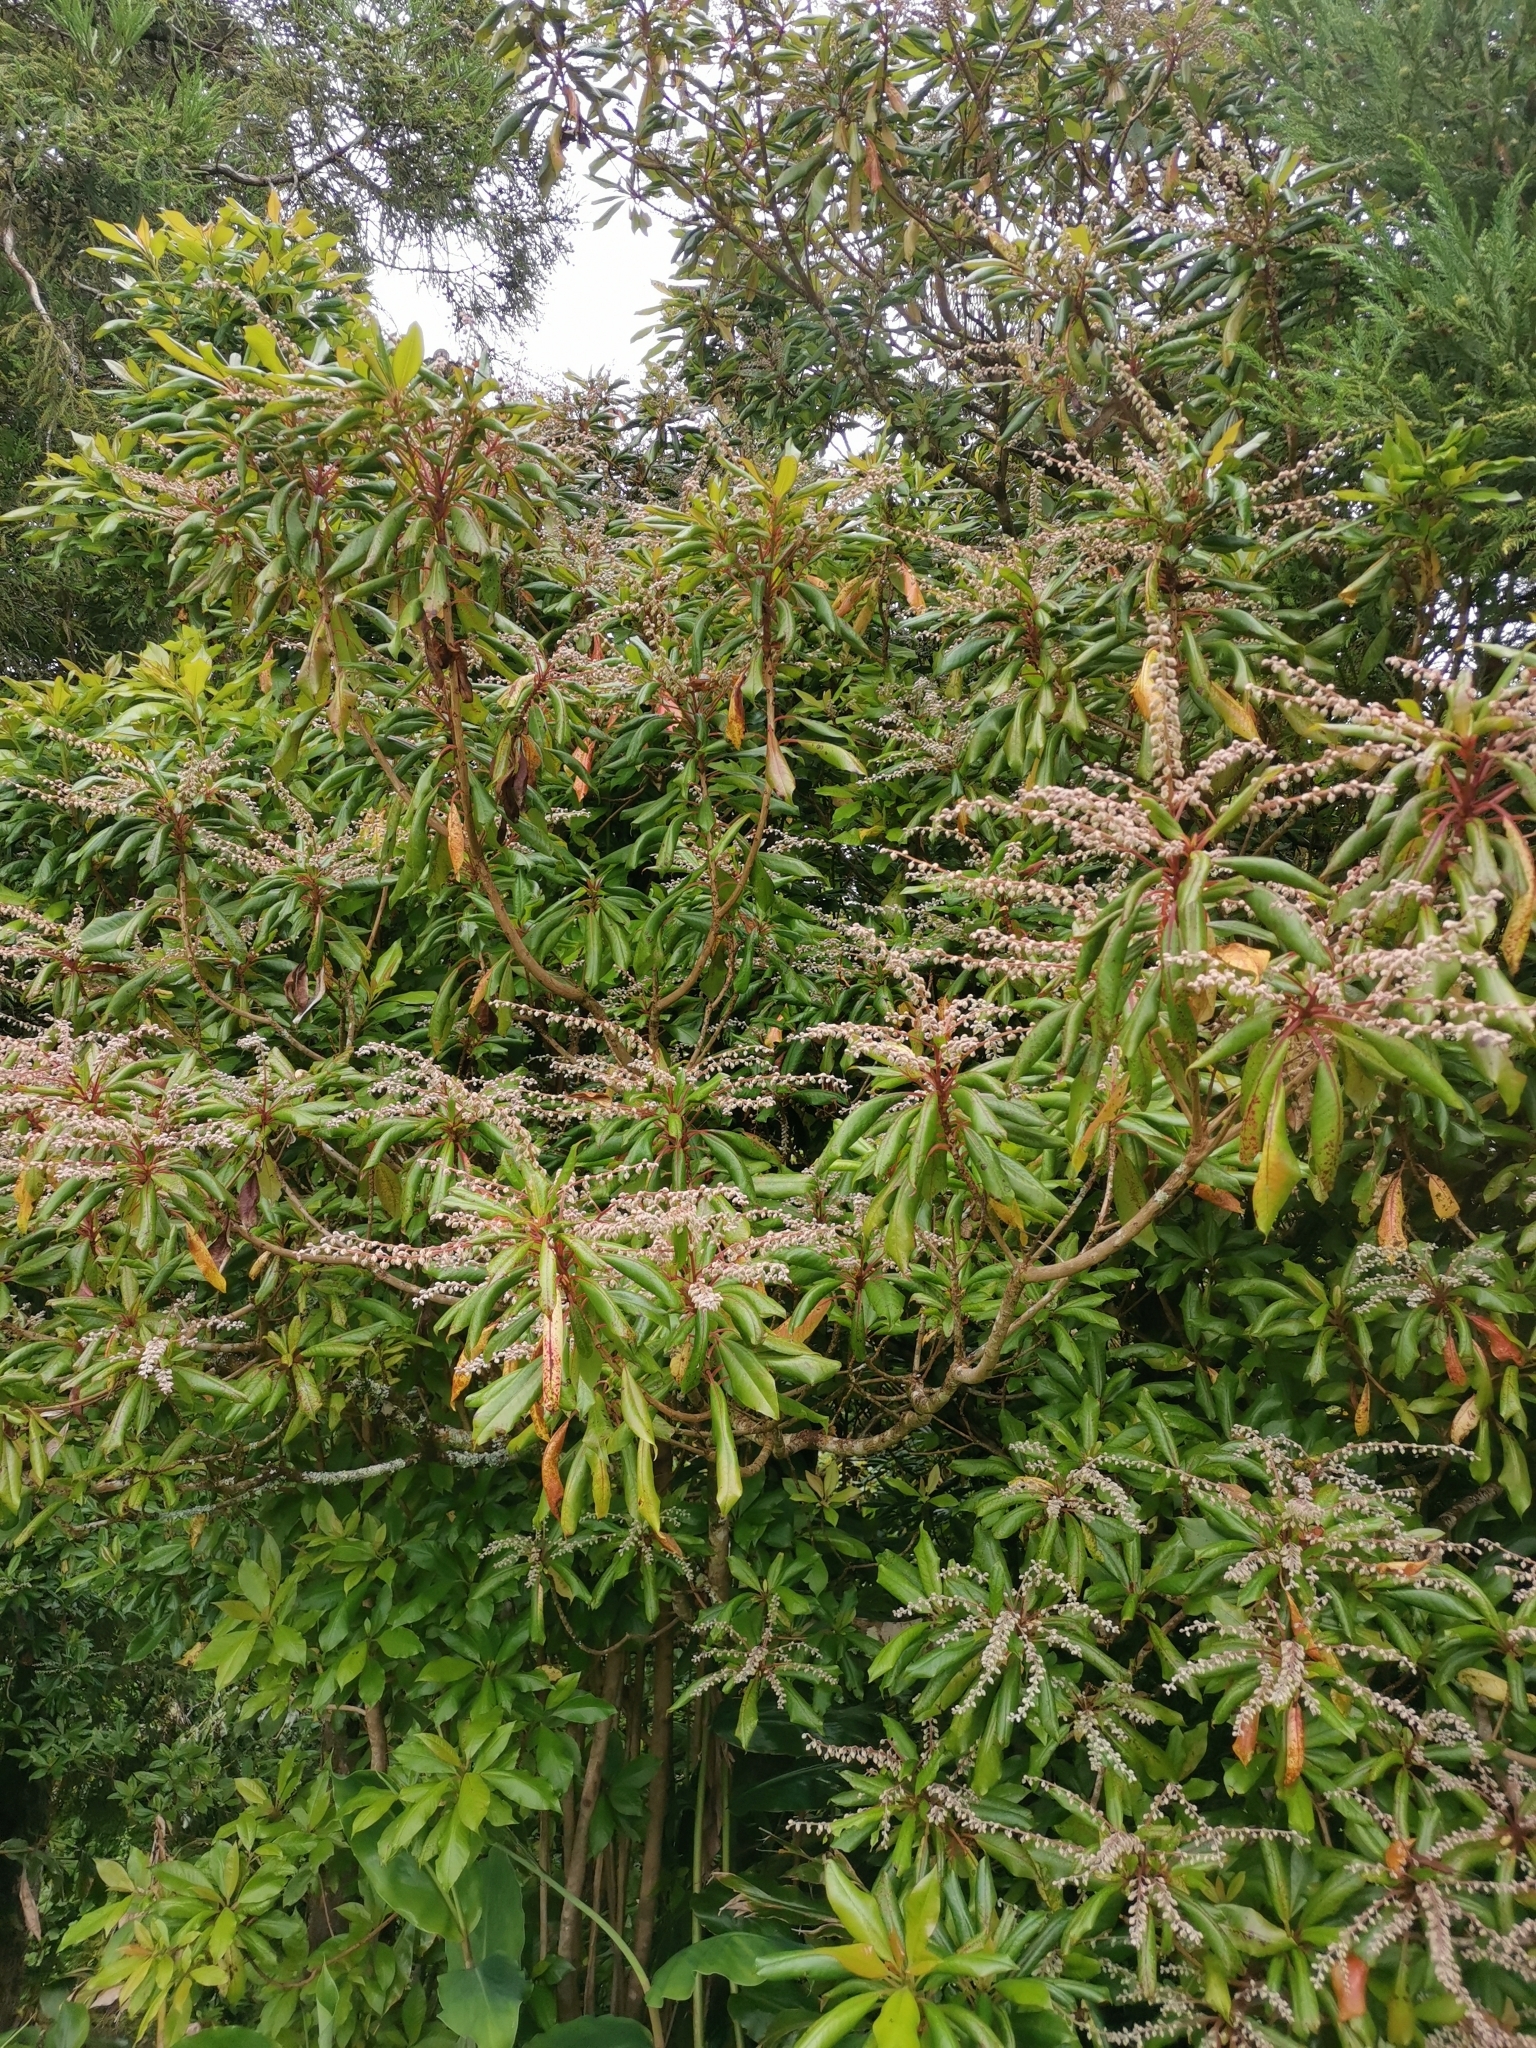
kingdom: Plantae
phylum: Tracheophyta
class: Magnoliopsida
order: Ericales
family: Clethraceae
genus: Clethra
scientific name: Clethra arborea
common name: Lily-of-the-valley-tree
